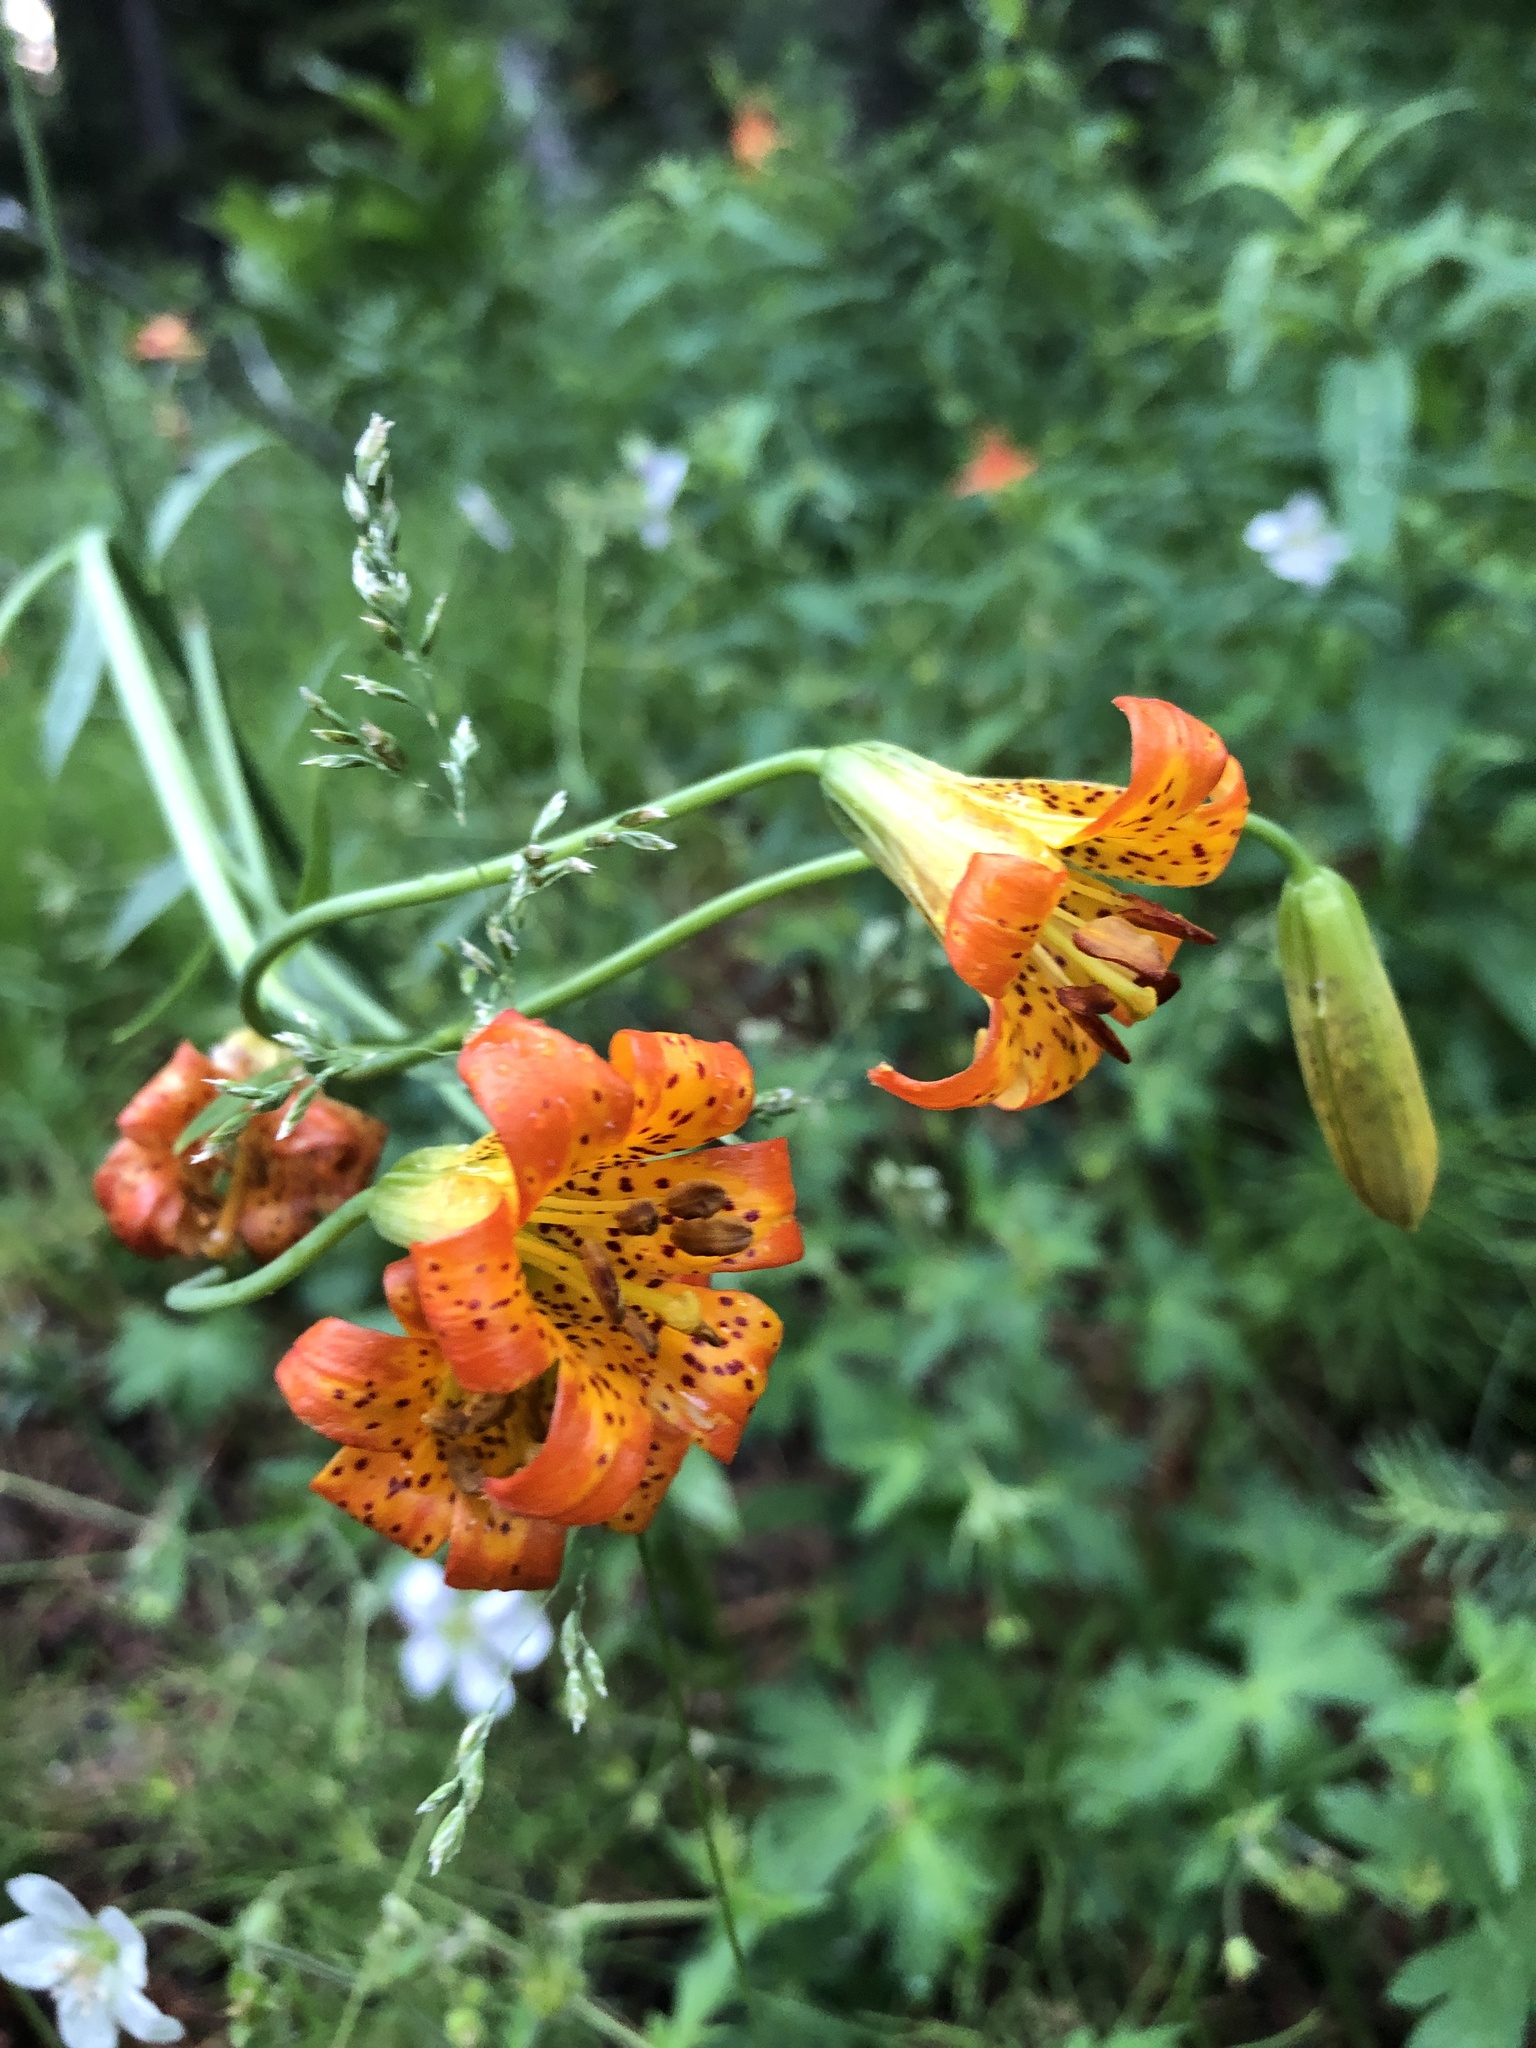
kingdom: Plantae
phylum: Tracheophyta
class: Liliopsida
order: Liliales
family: Liliaceae
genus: Lilium
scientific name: Lilium parvum
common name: Alpine lily
